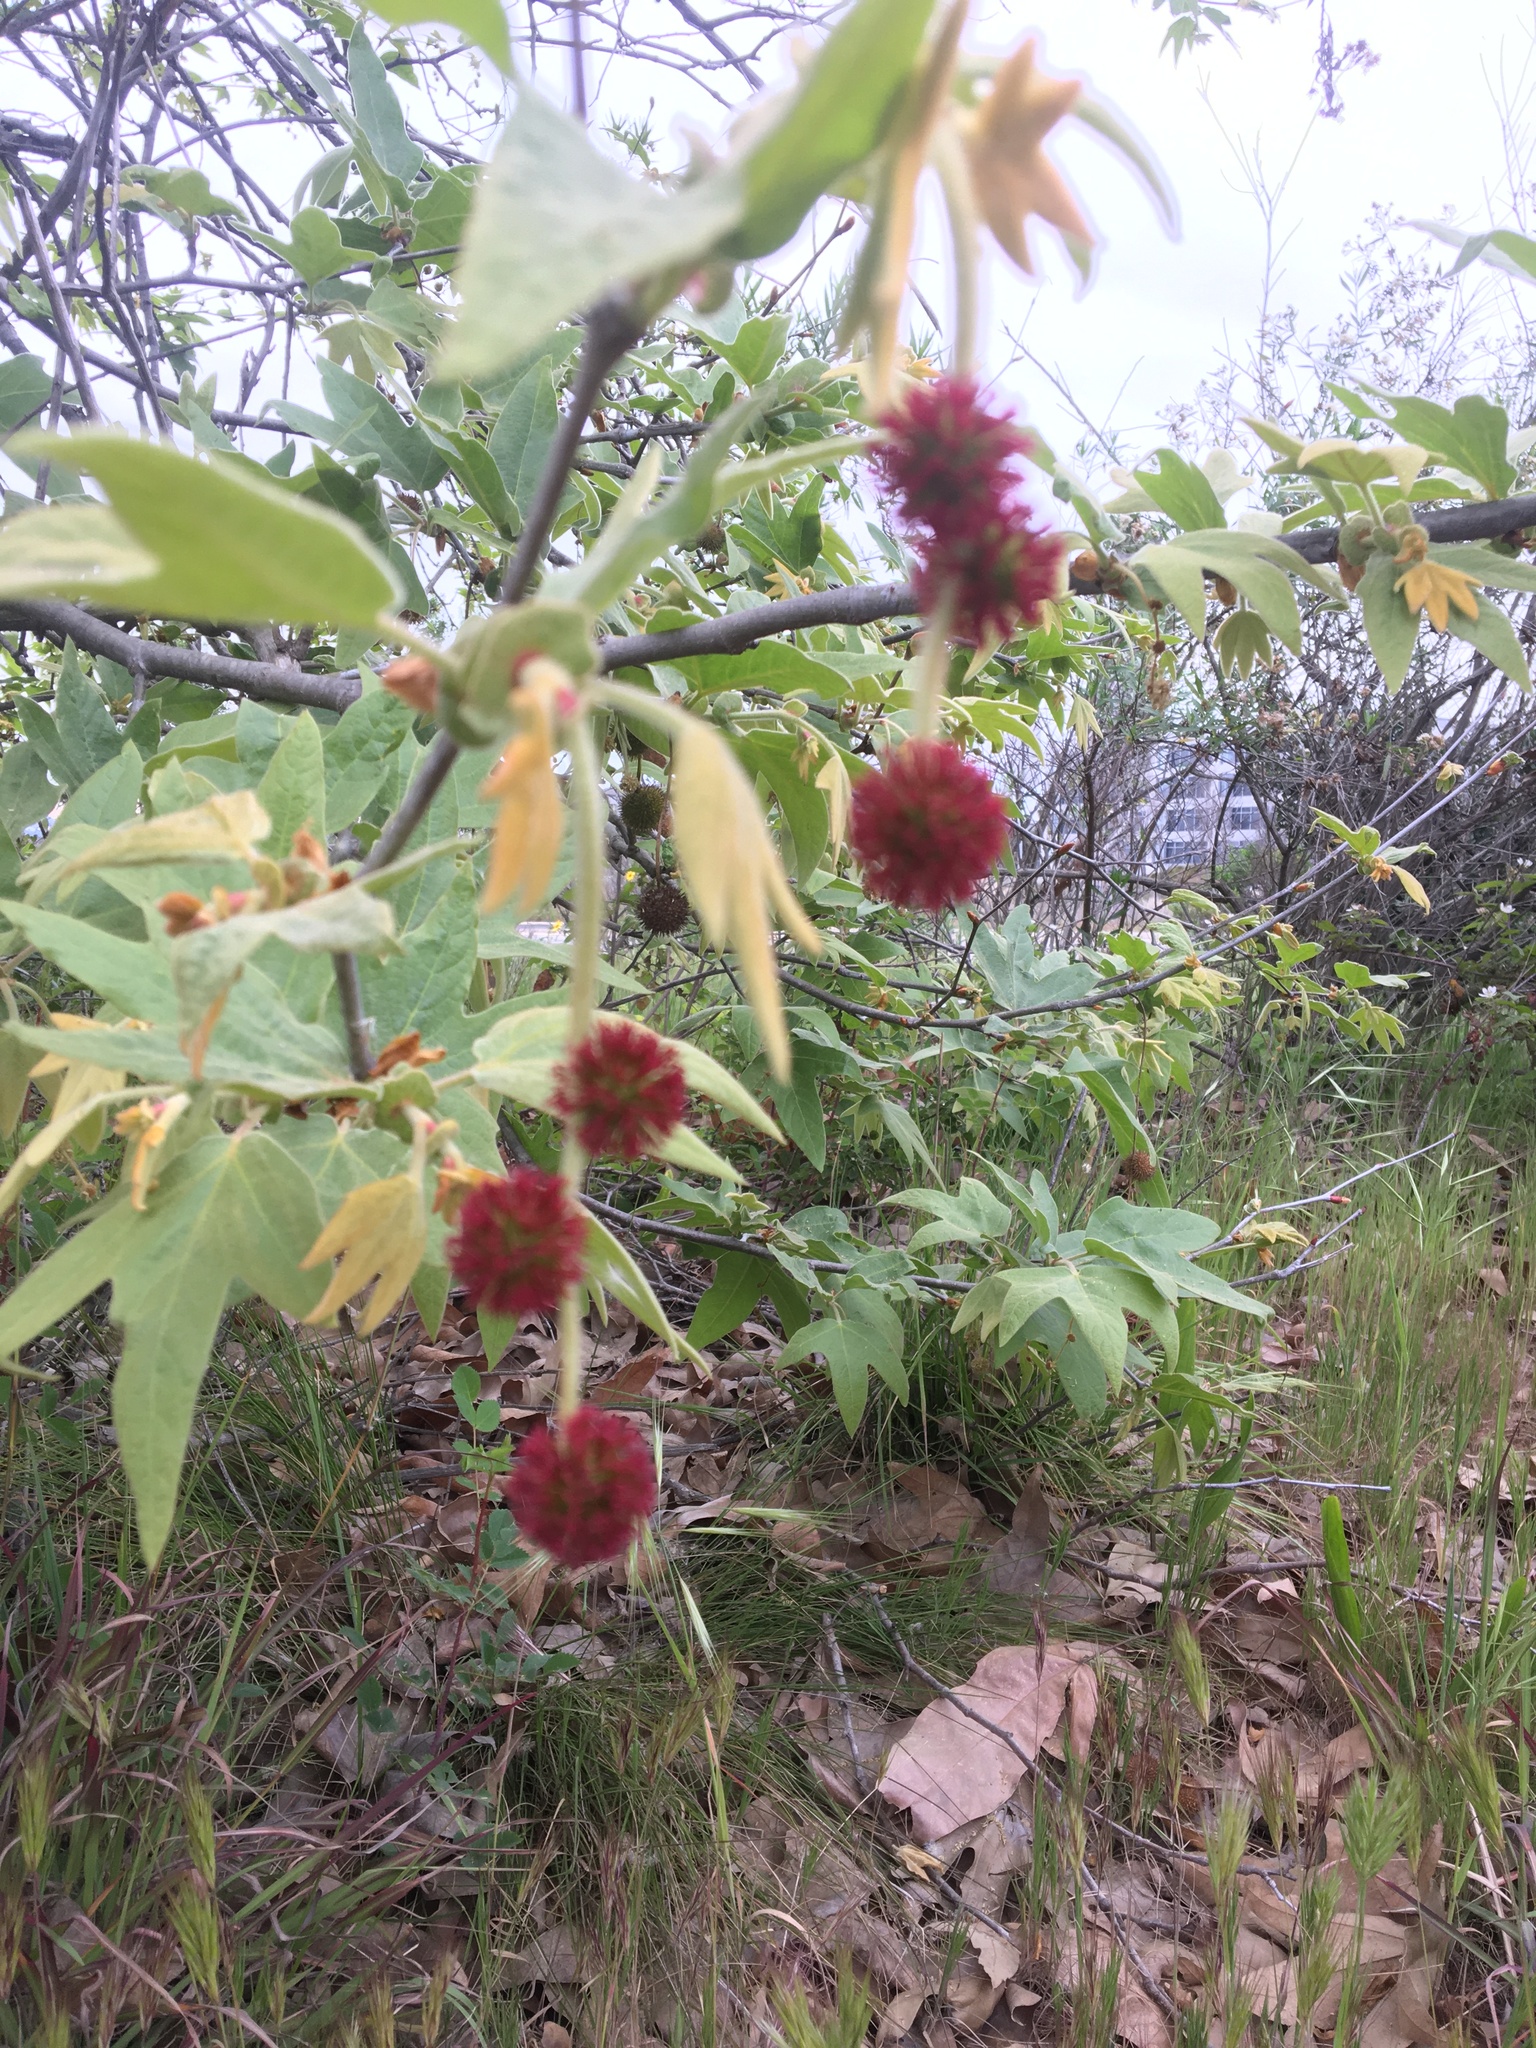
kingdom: Plantae
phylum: Tracheophyta
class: Magnoliopsida
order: Proteales
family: Platanaceae
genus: Platanus
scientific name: Platanus racemosa
